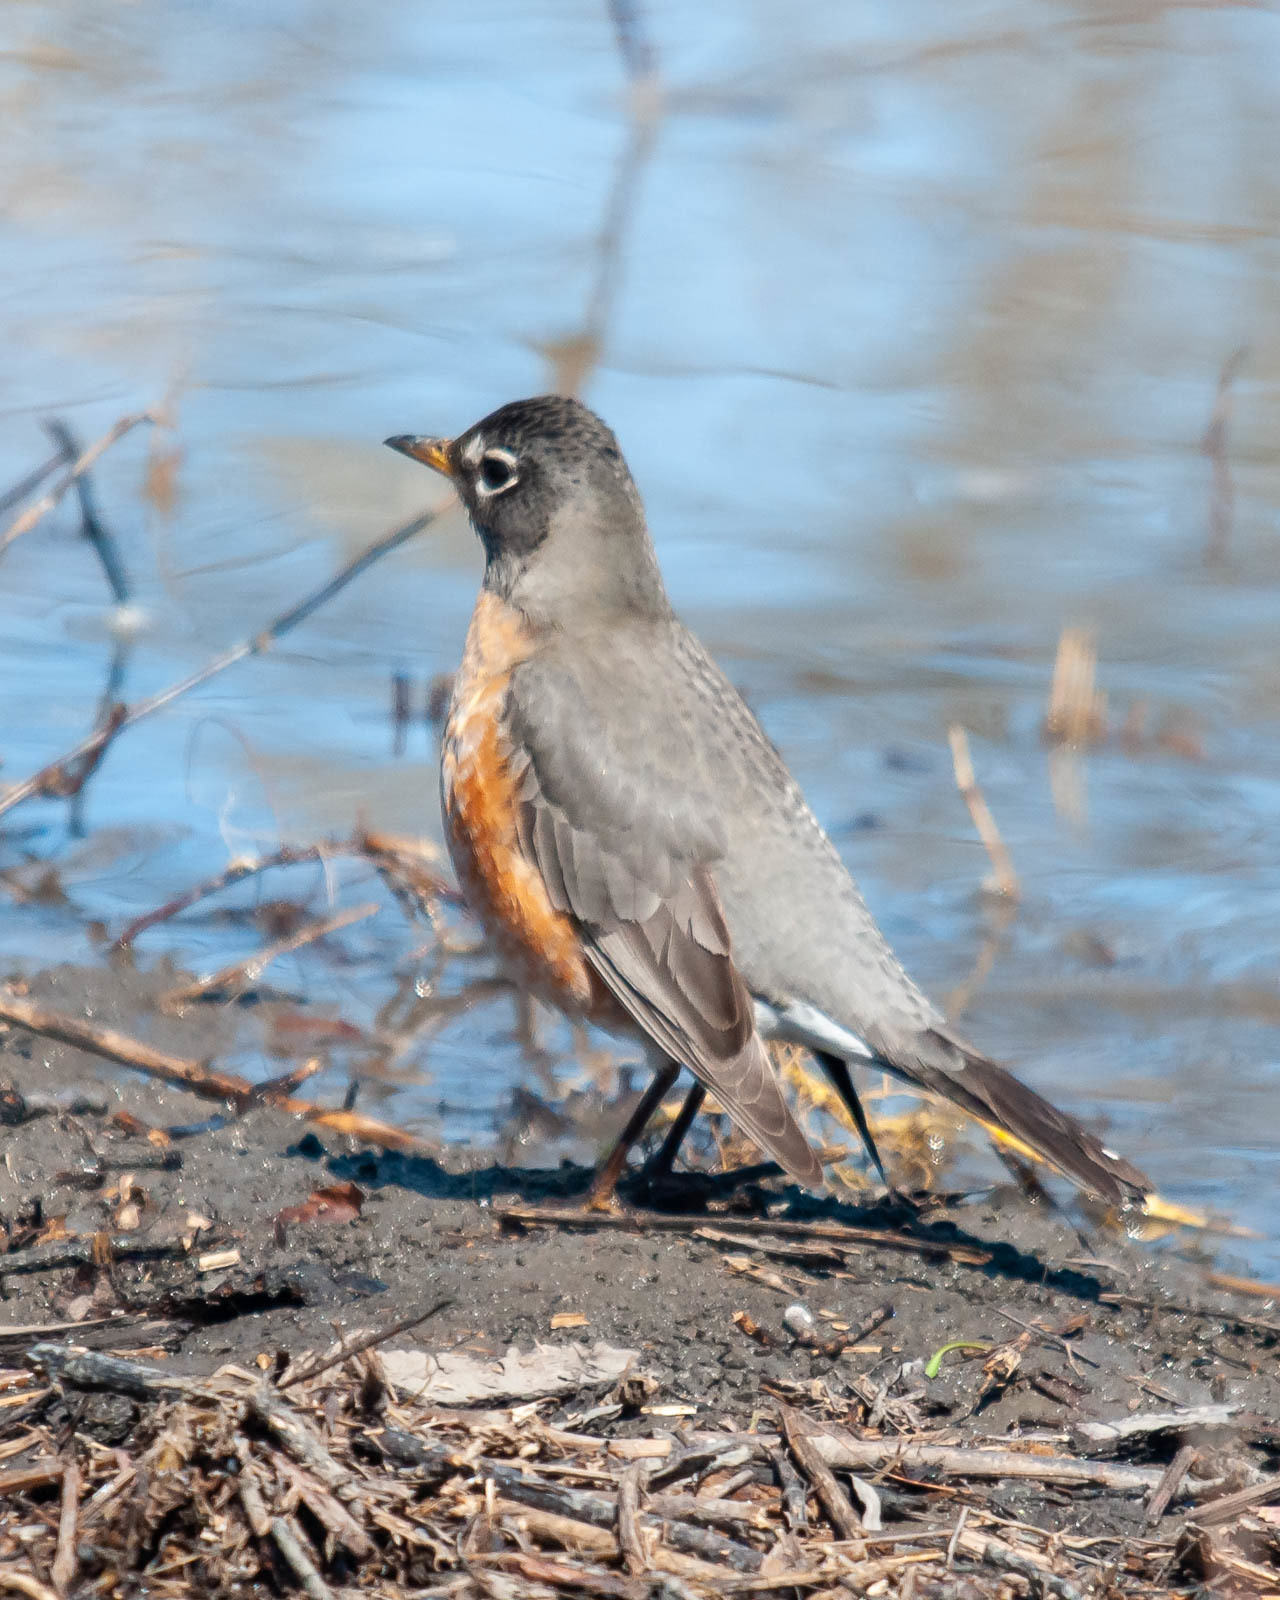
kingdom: Animalia
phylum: Chordata
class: Aves
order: Passeriformes
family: Turdidae
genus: Turdus
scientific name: Turdus migratorius
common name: American robin
